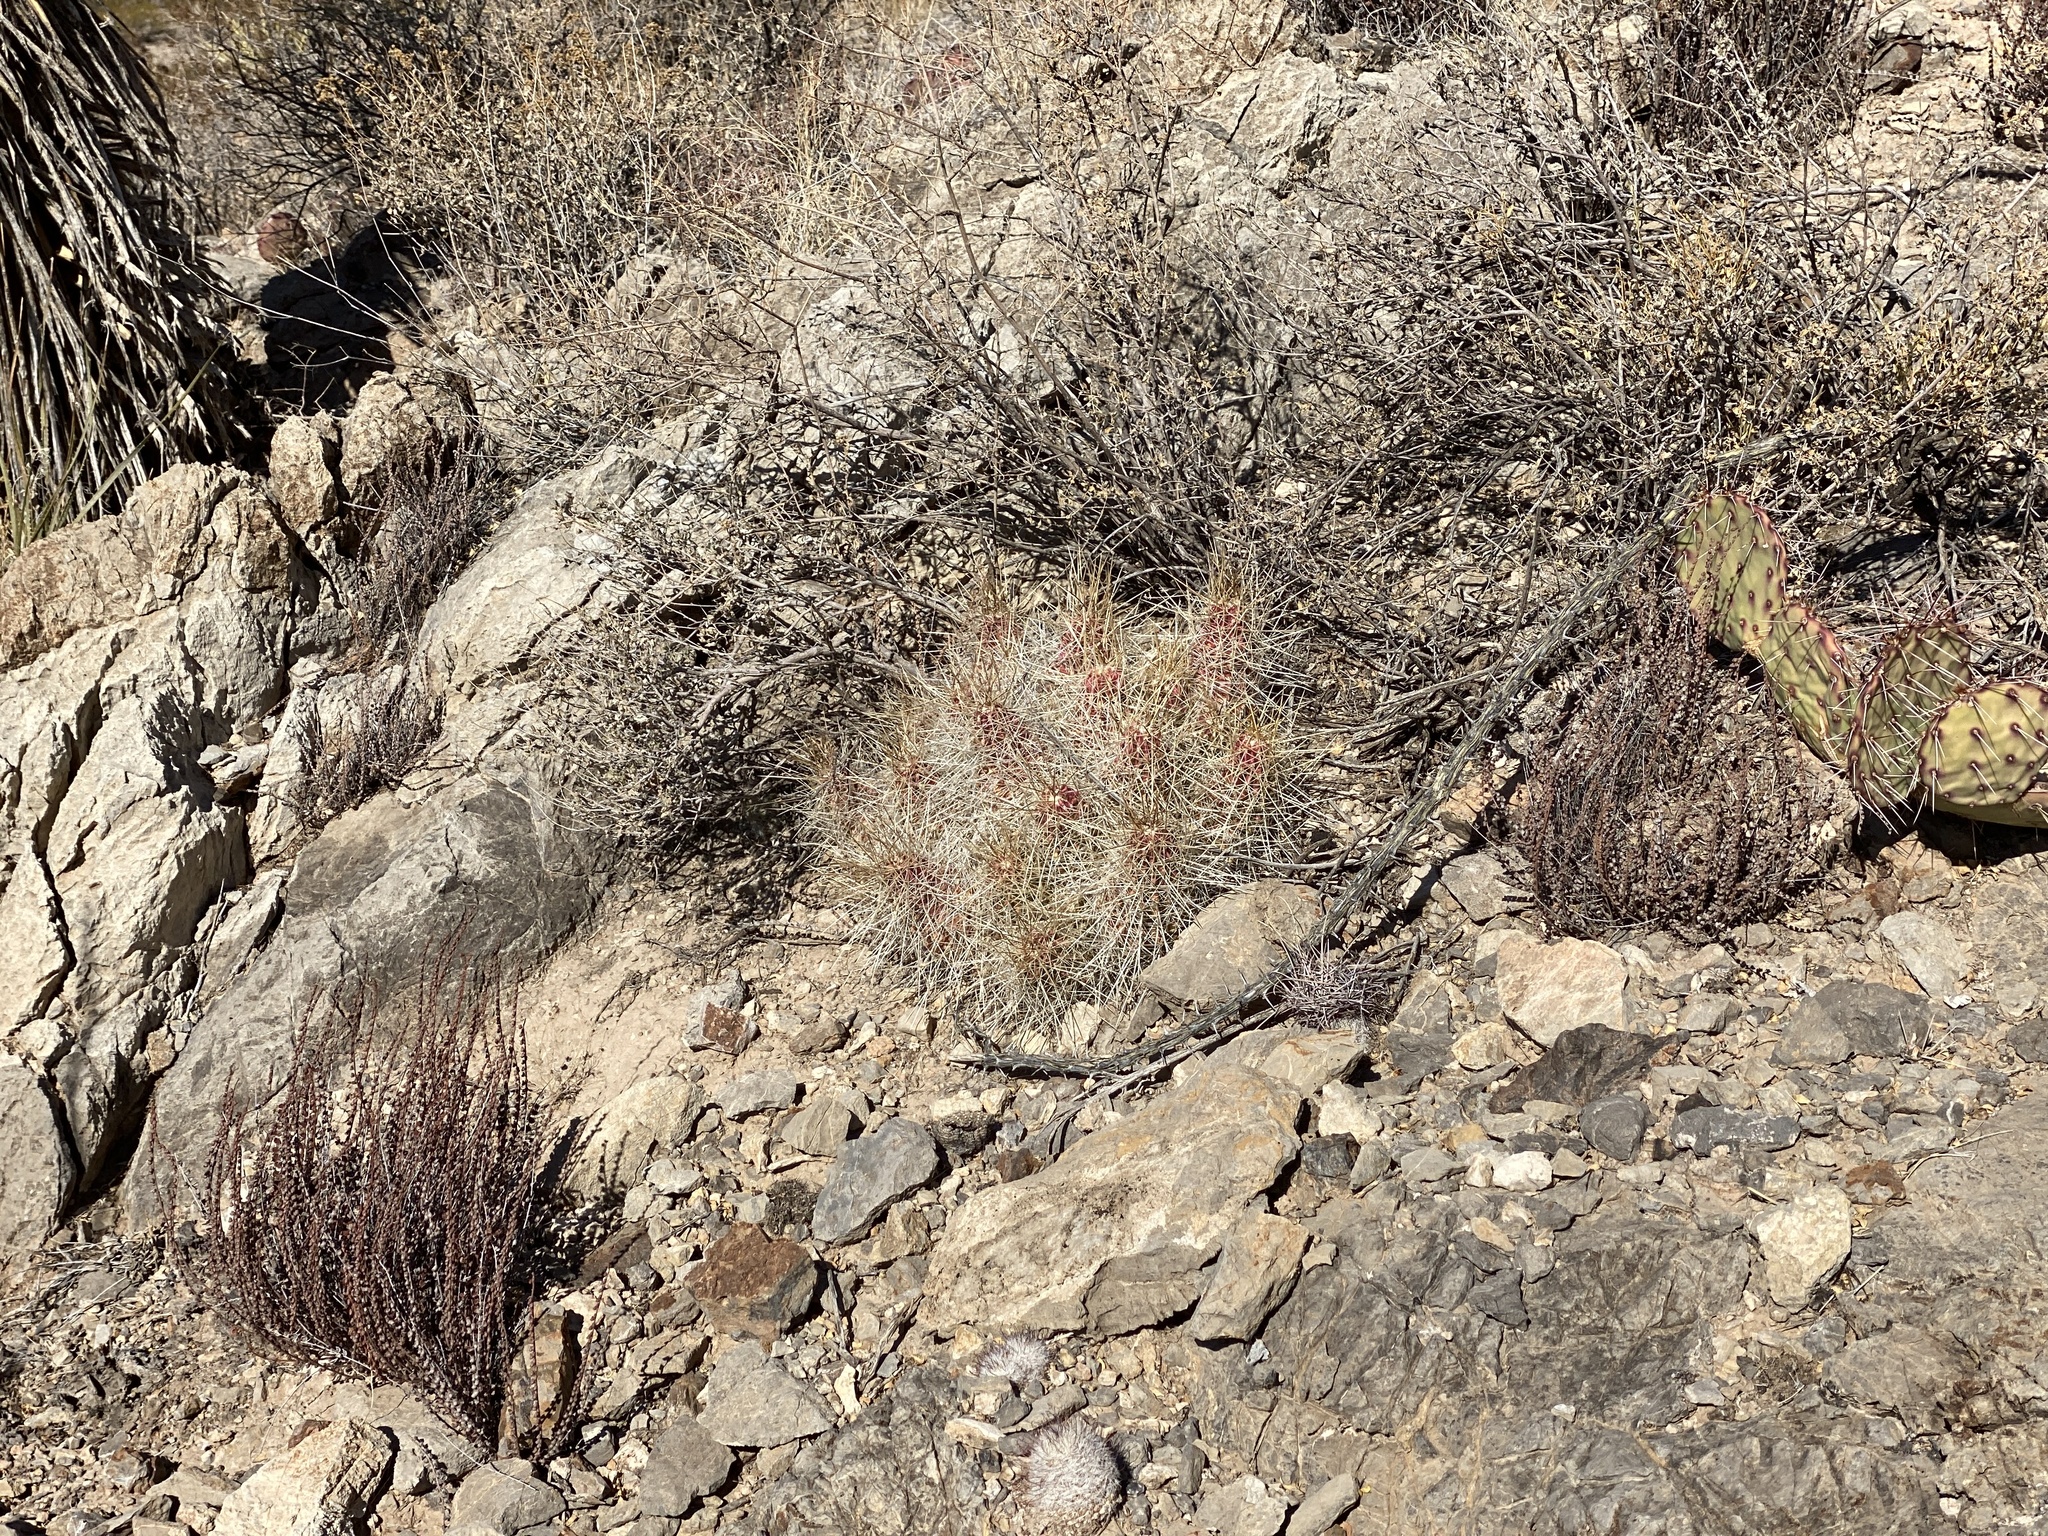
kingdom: Plantae
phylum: Tracheophyta
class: Magnoliopsida
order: Caryophyllales
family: Cactaceae
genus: Echinocereus
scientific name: Echinocereus stramineus
